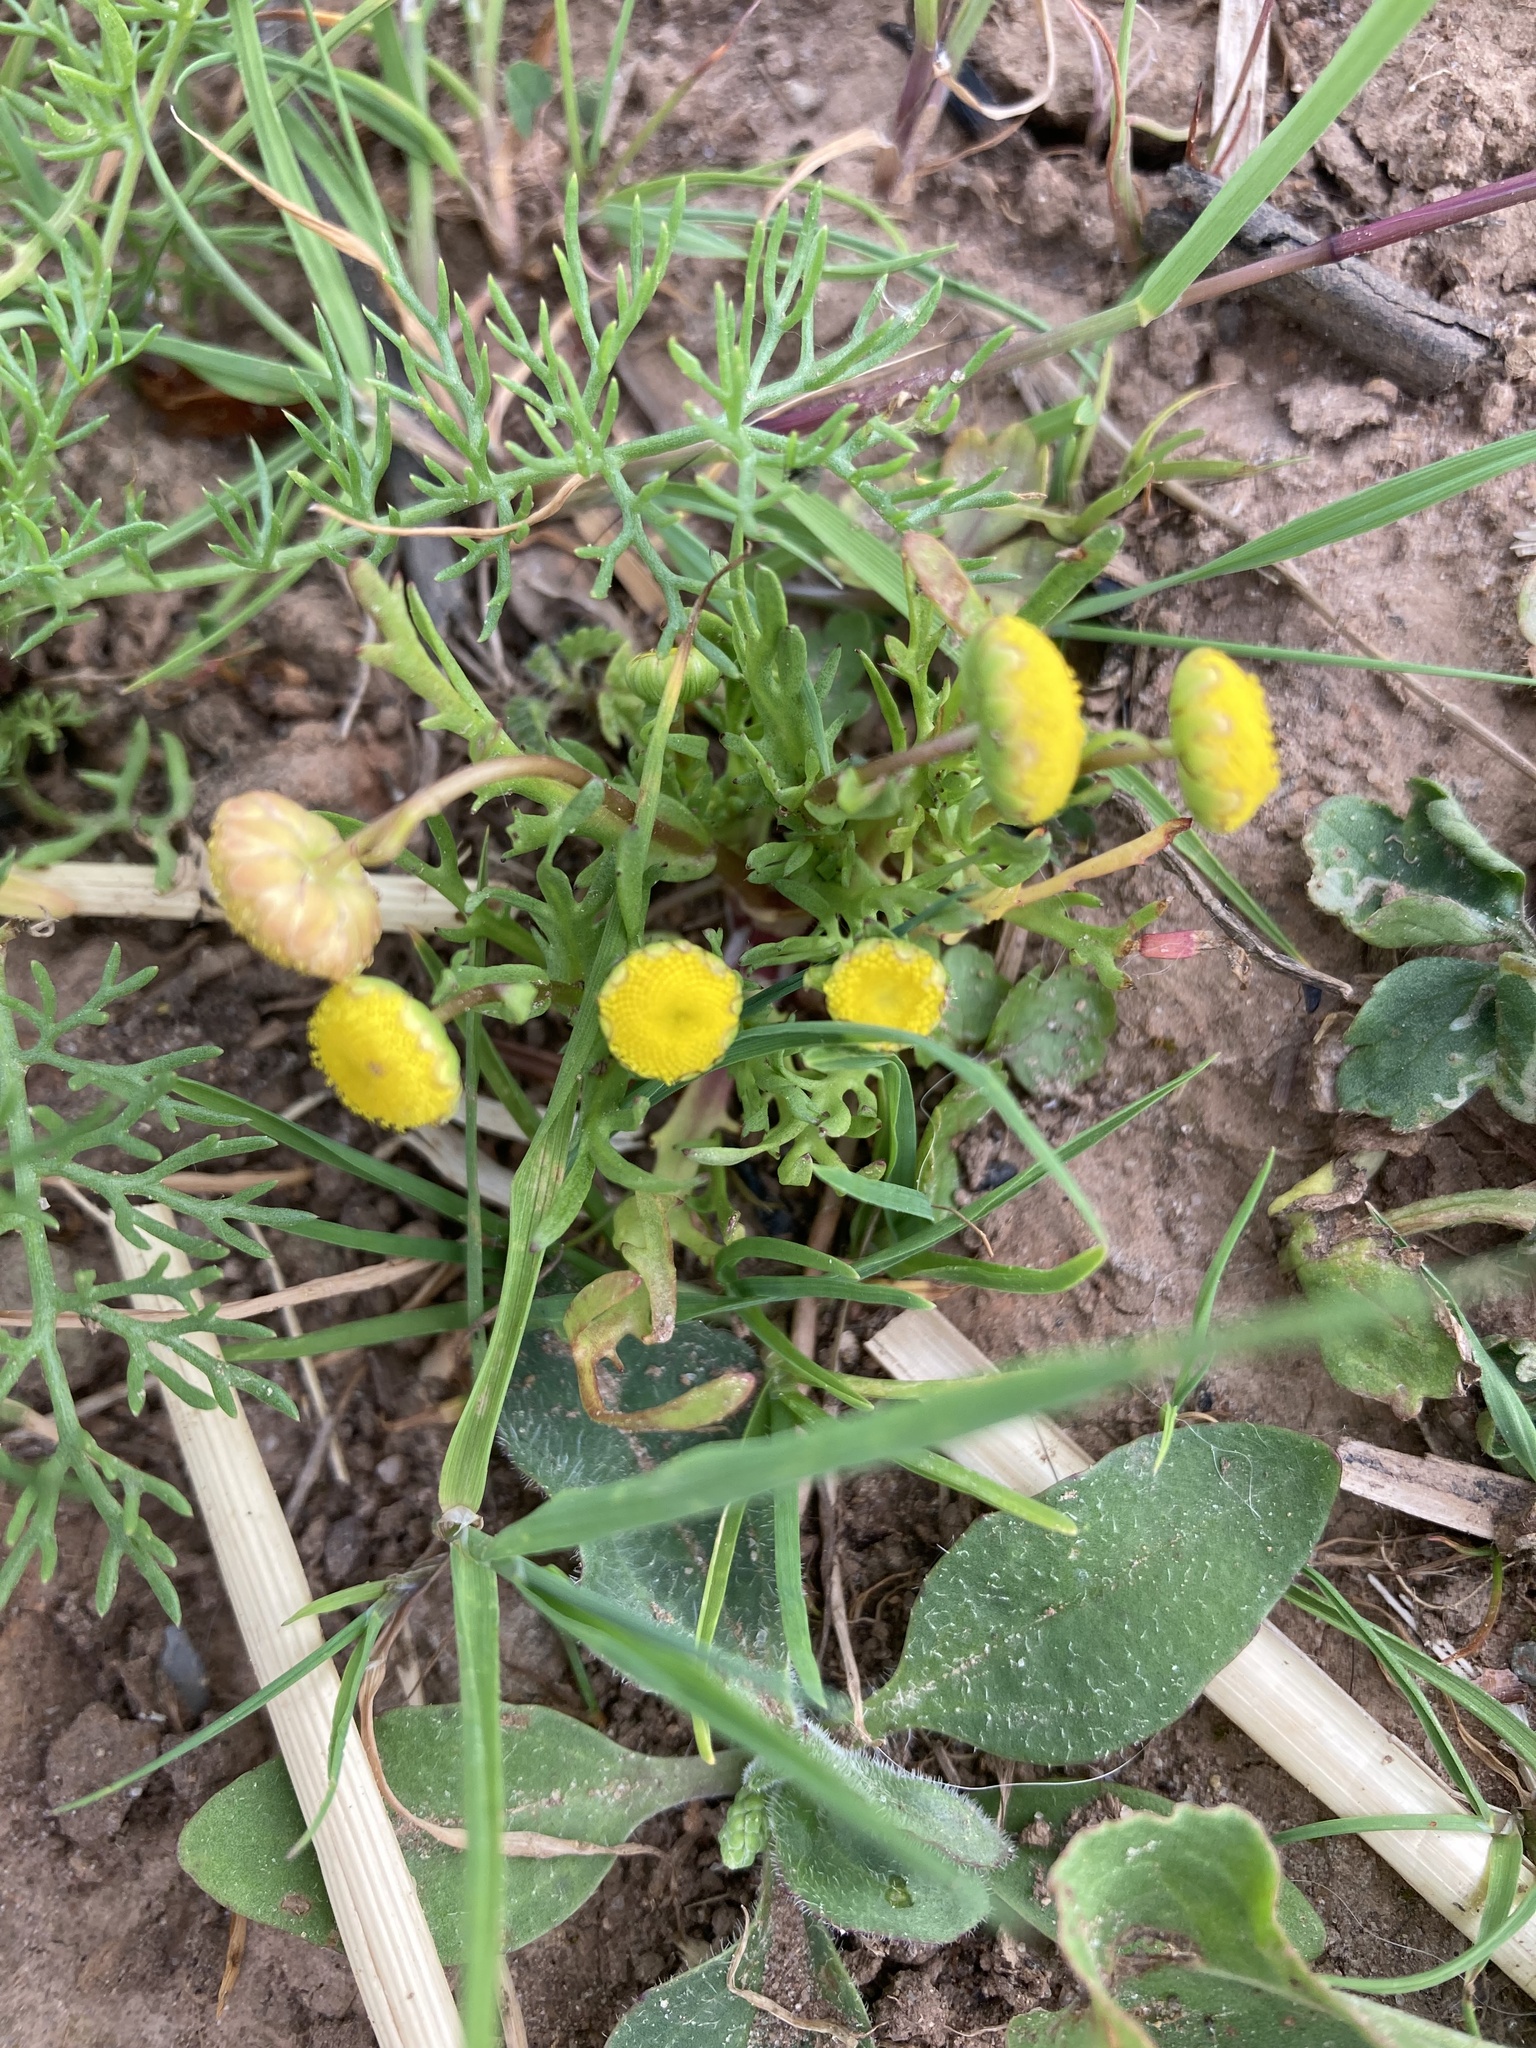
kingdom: Plantae
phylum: Tracheophyta
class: Magnoliopsida
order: Asterales
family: Asteraceae
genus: Cotula
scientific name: Cotula coronopifolia
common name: Buttonweed
